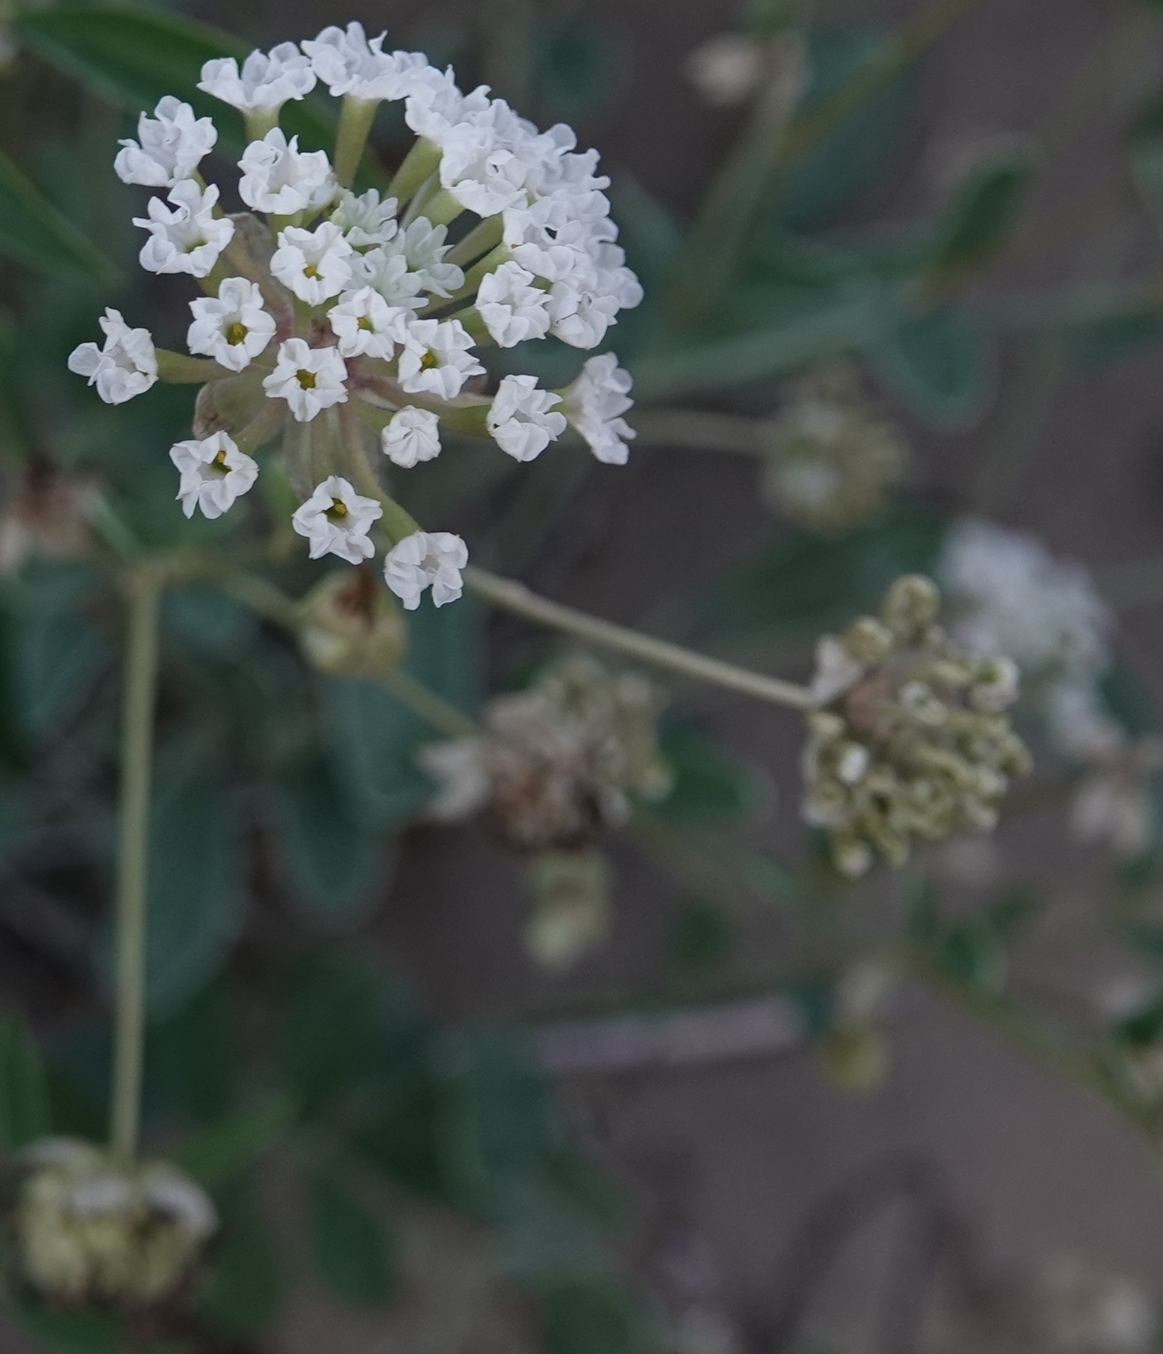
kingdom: Plantae
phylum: Tracheophyta
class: Magnoliopsida
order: Caryophyllales
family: Nyctaginaceae
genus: Abronia
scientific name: Abronia elliptica
